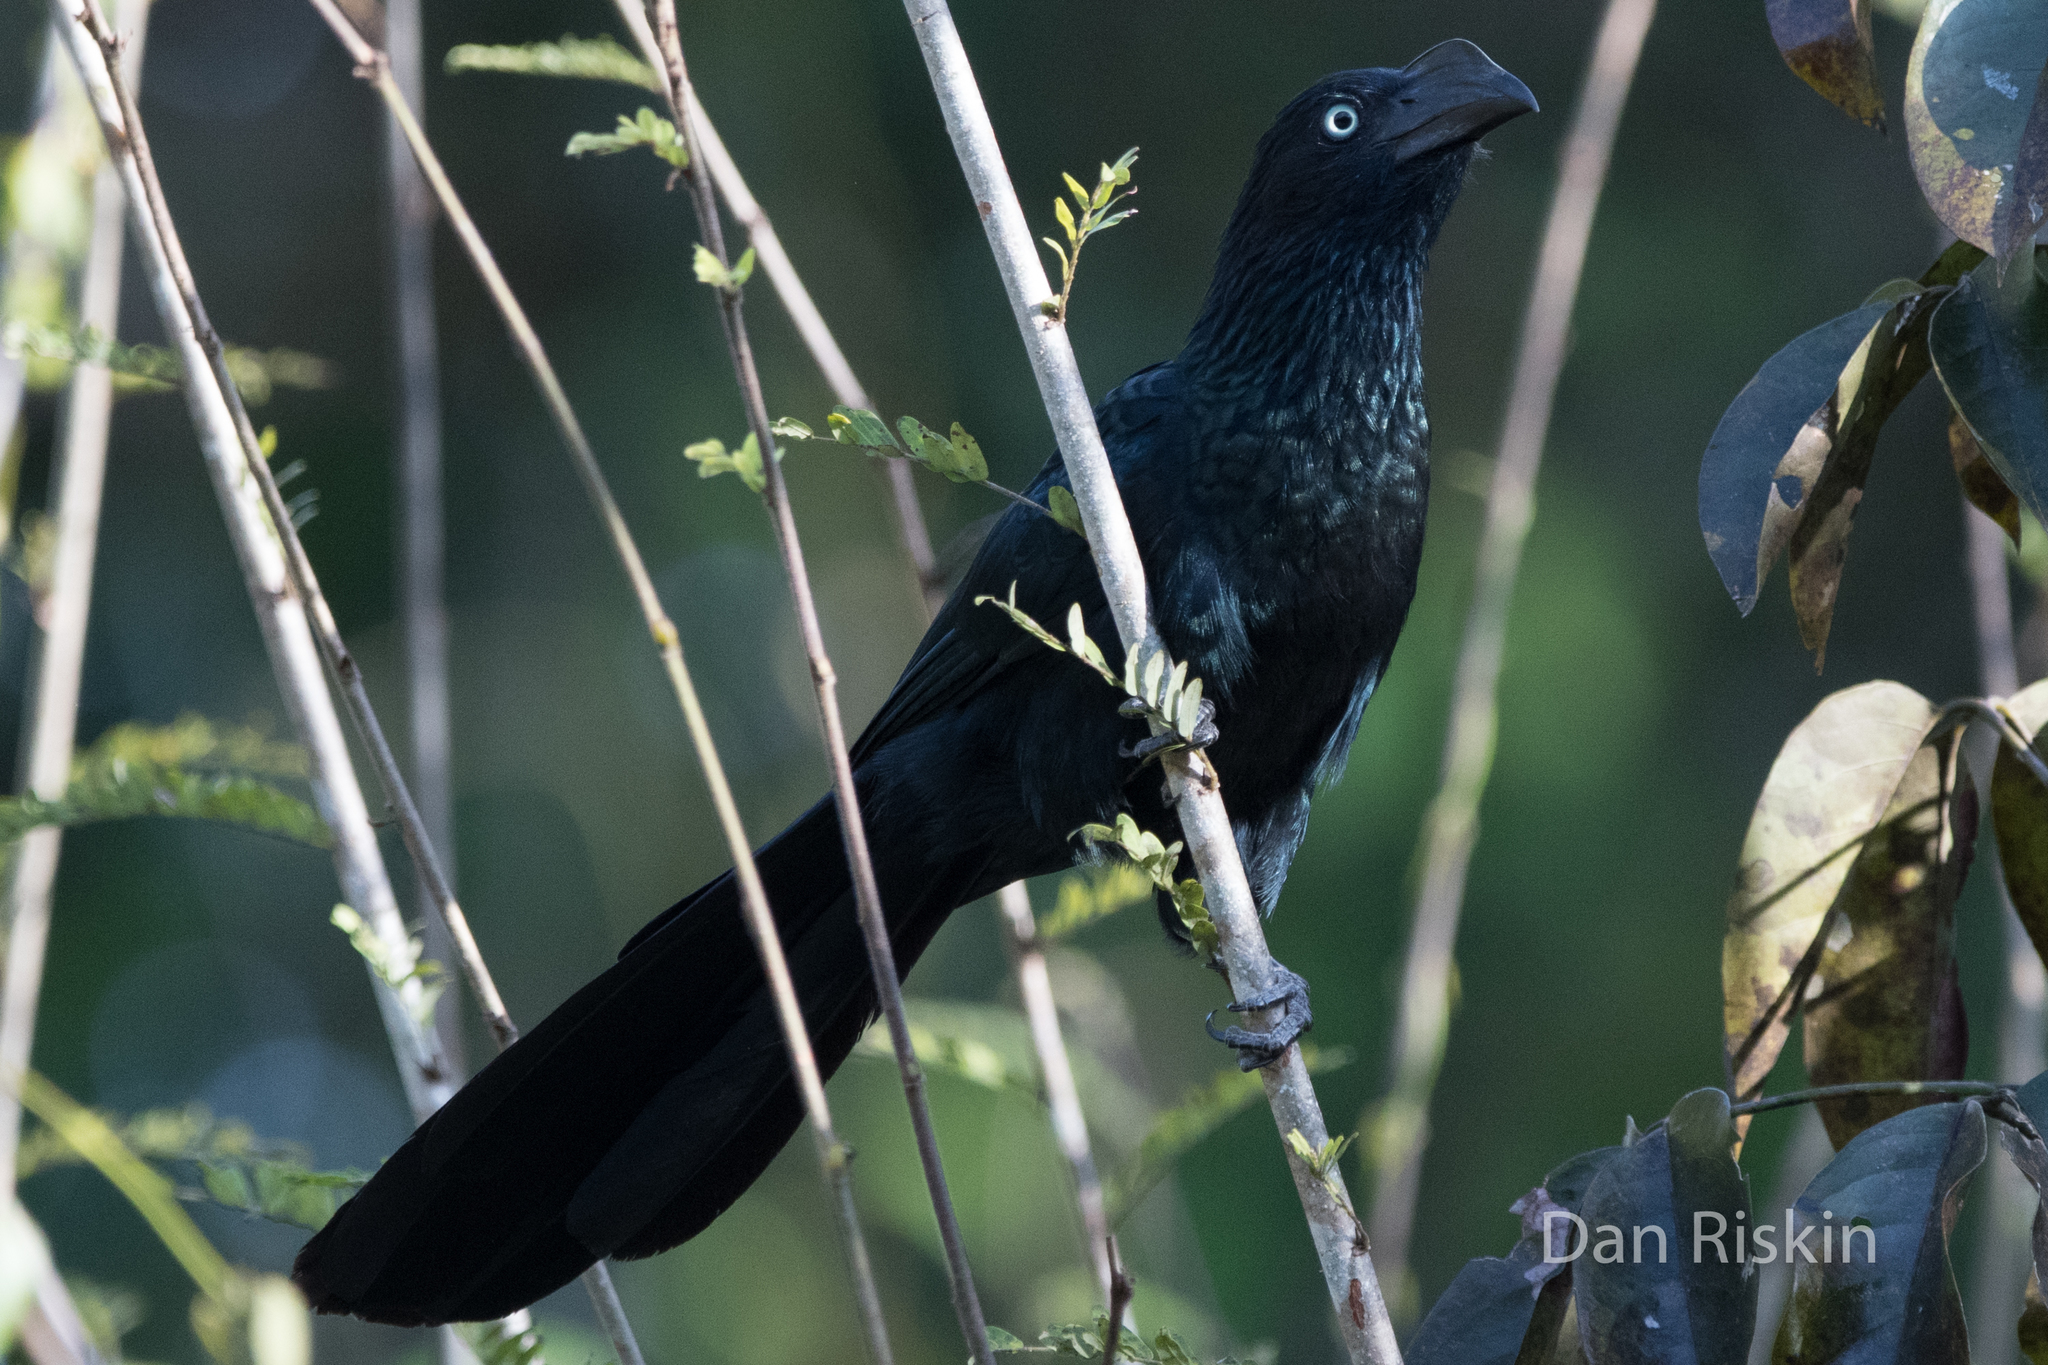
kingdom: Animalia
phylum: Chordata
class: Aves
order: Cuculiformes
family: Cuculidae
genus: Crotophaga
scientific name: Crotophaga major
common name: Greater ani
